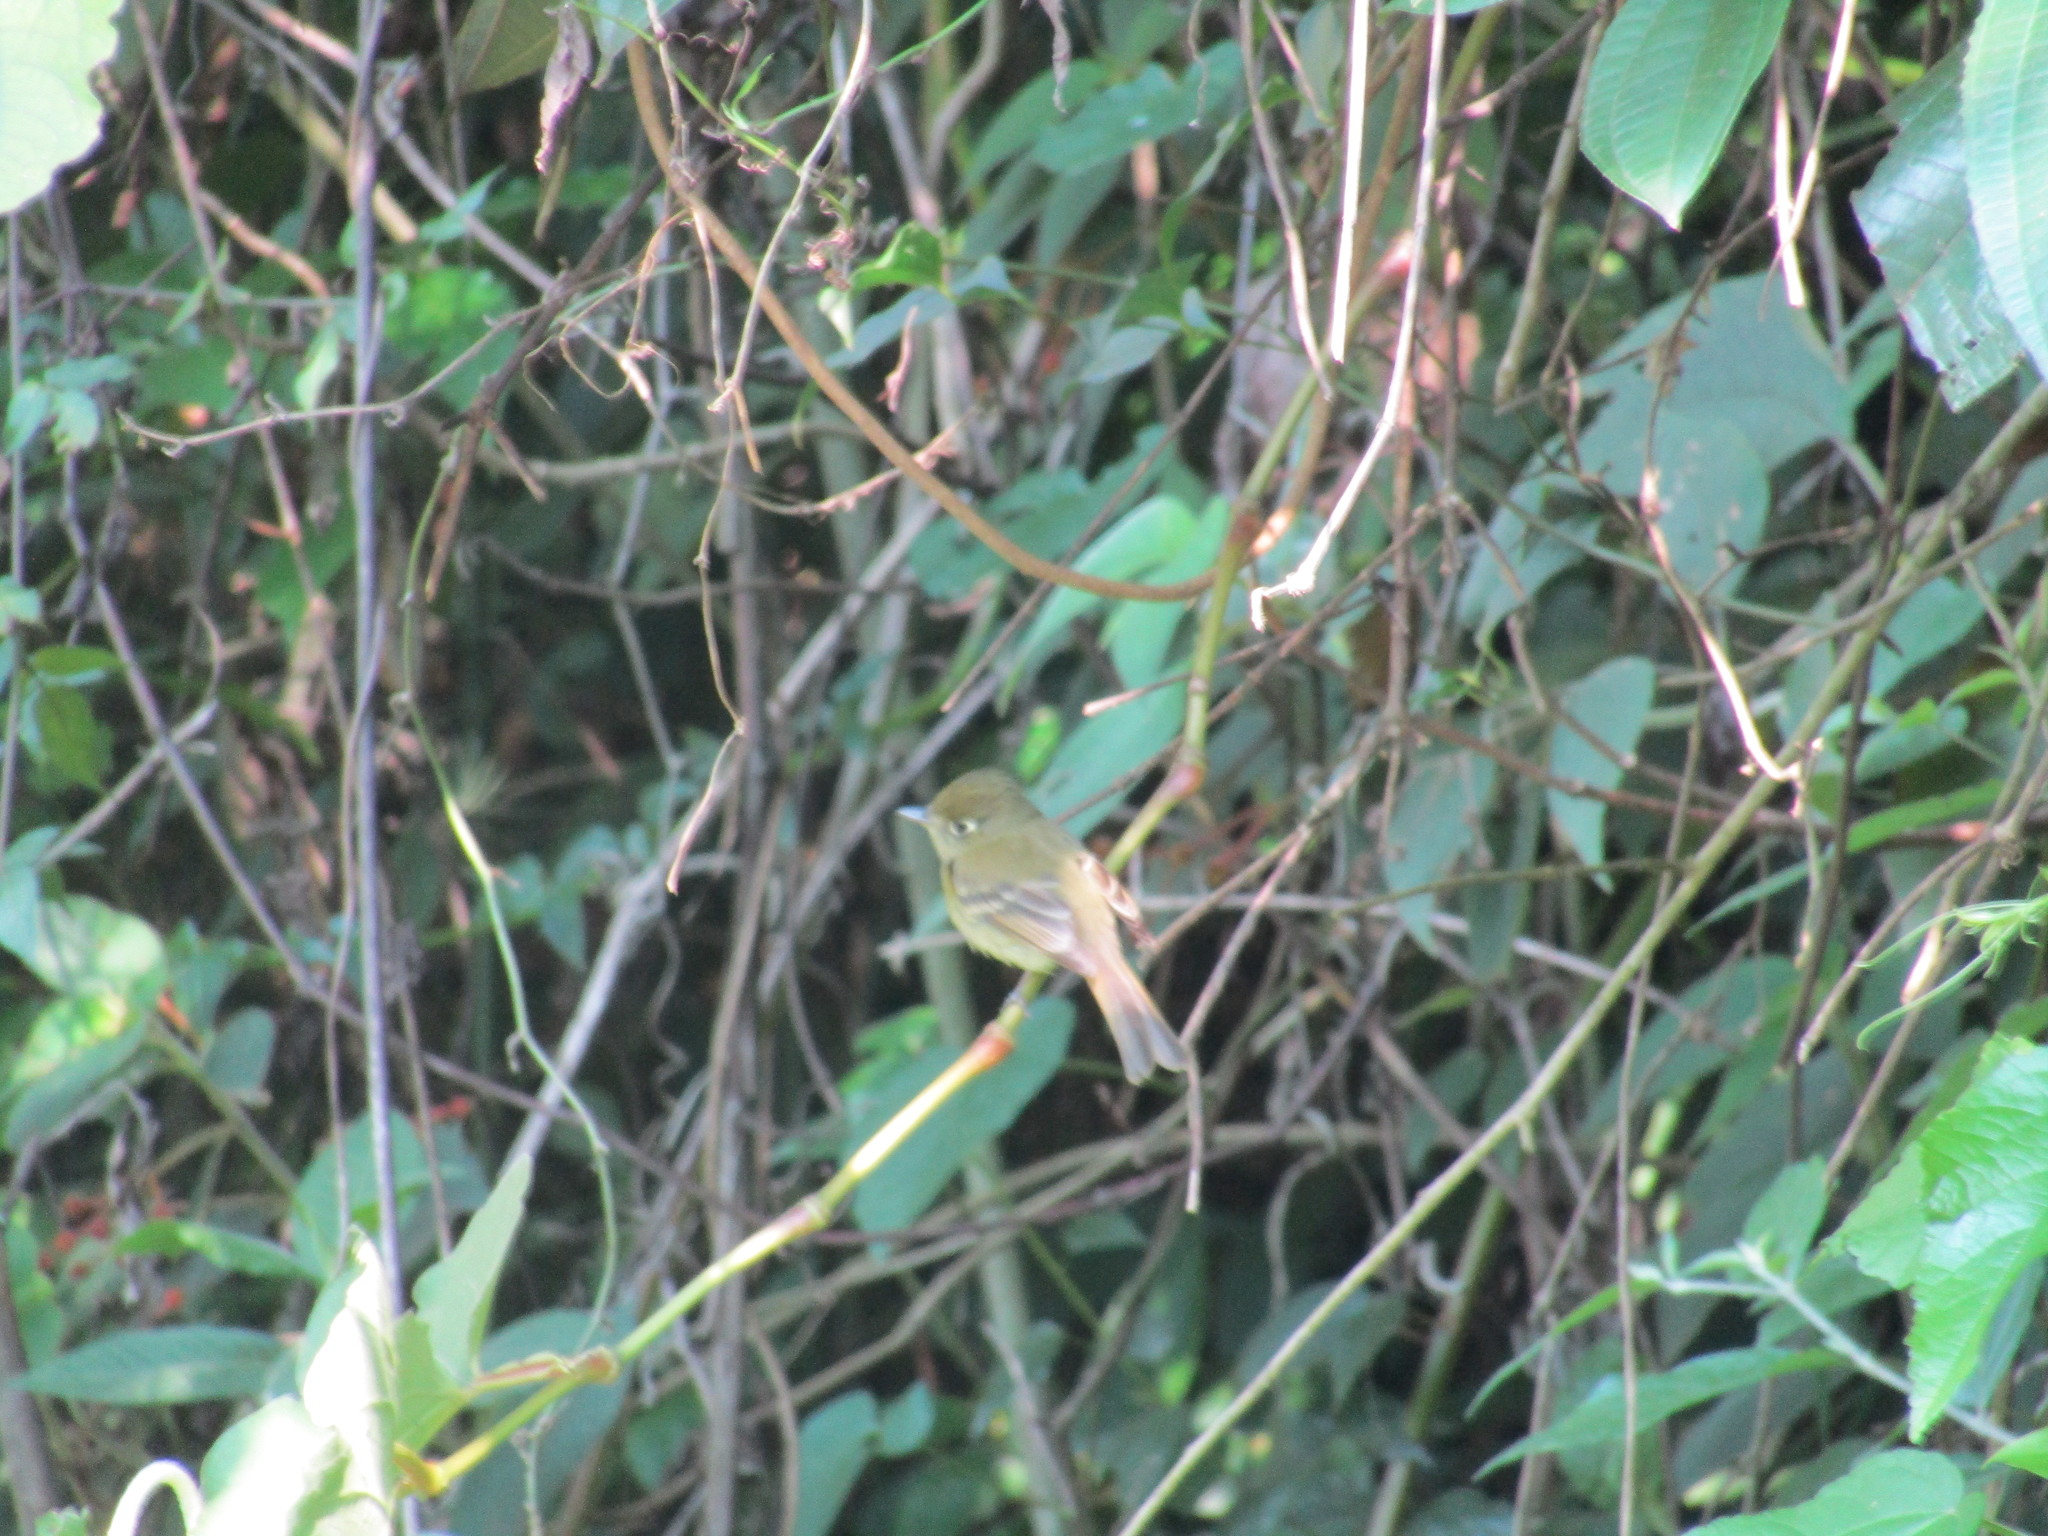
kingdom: Animalia
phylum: Chordata
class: Aves
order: Passeriformes
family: Tyrannidae
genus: Empidonax
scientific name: Empidonax difficilis
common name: Pacific-slope flycatcher
